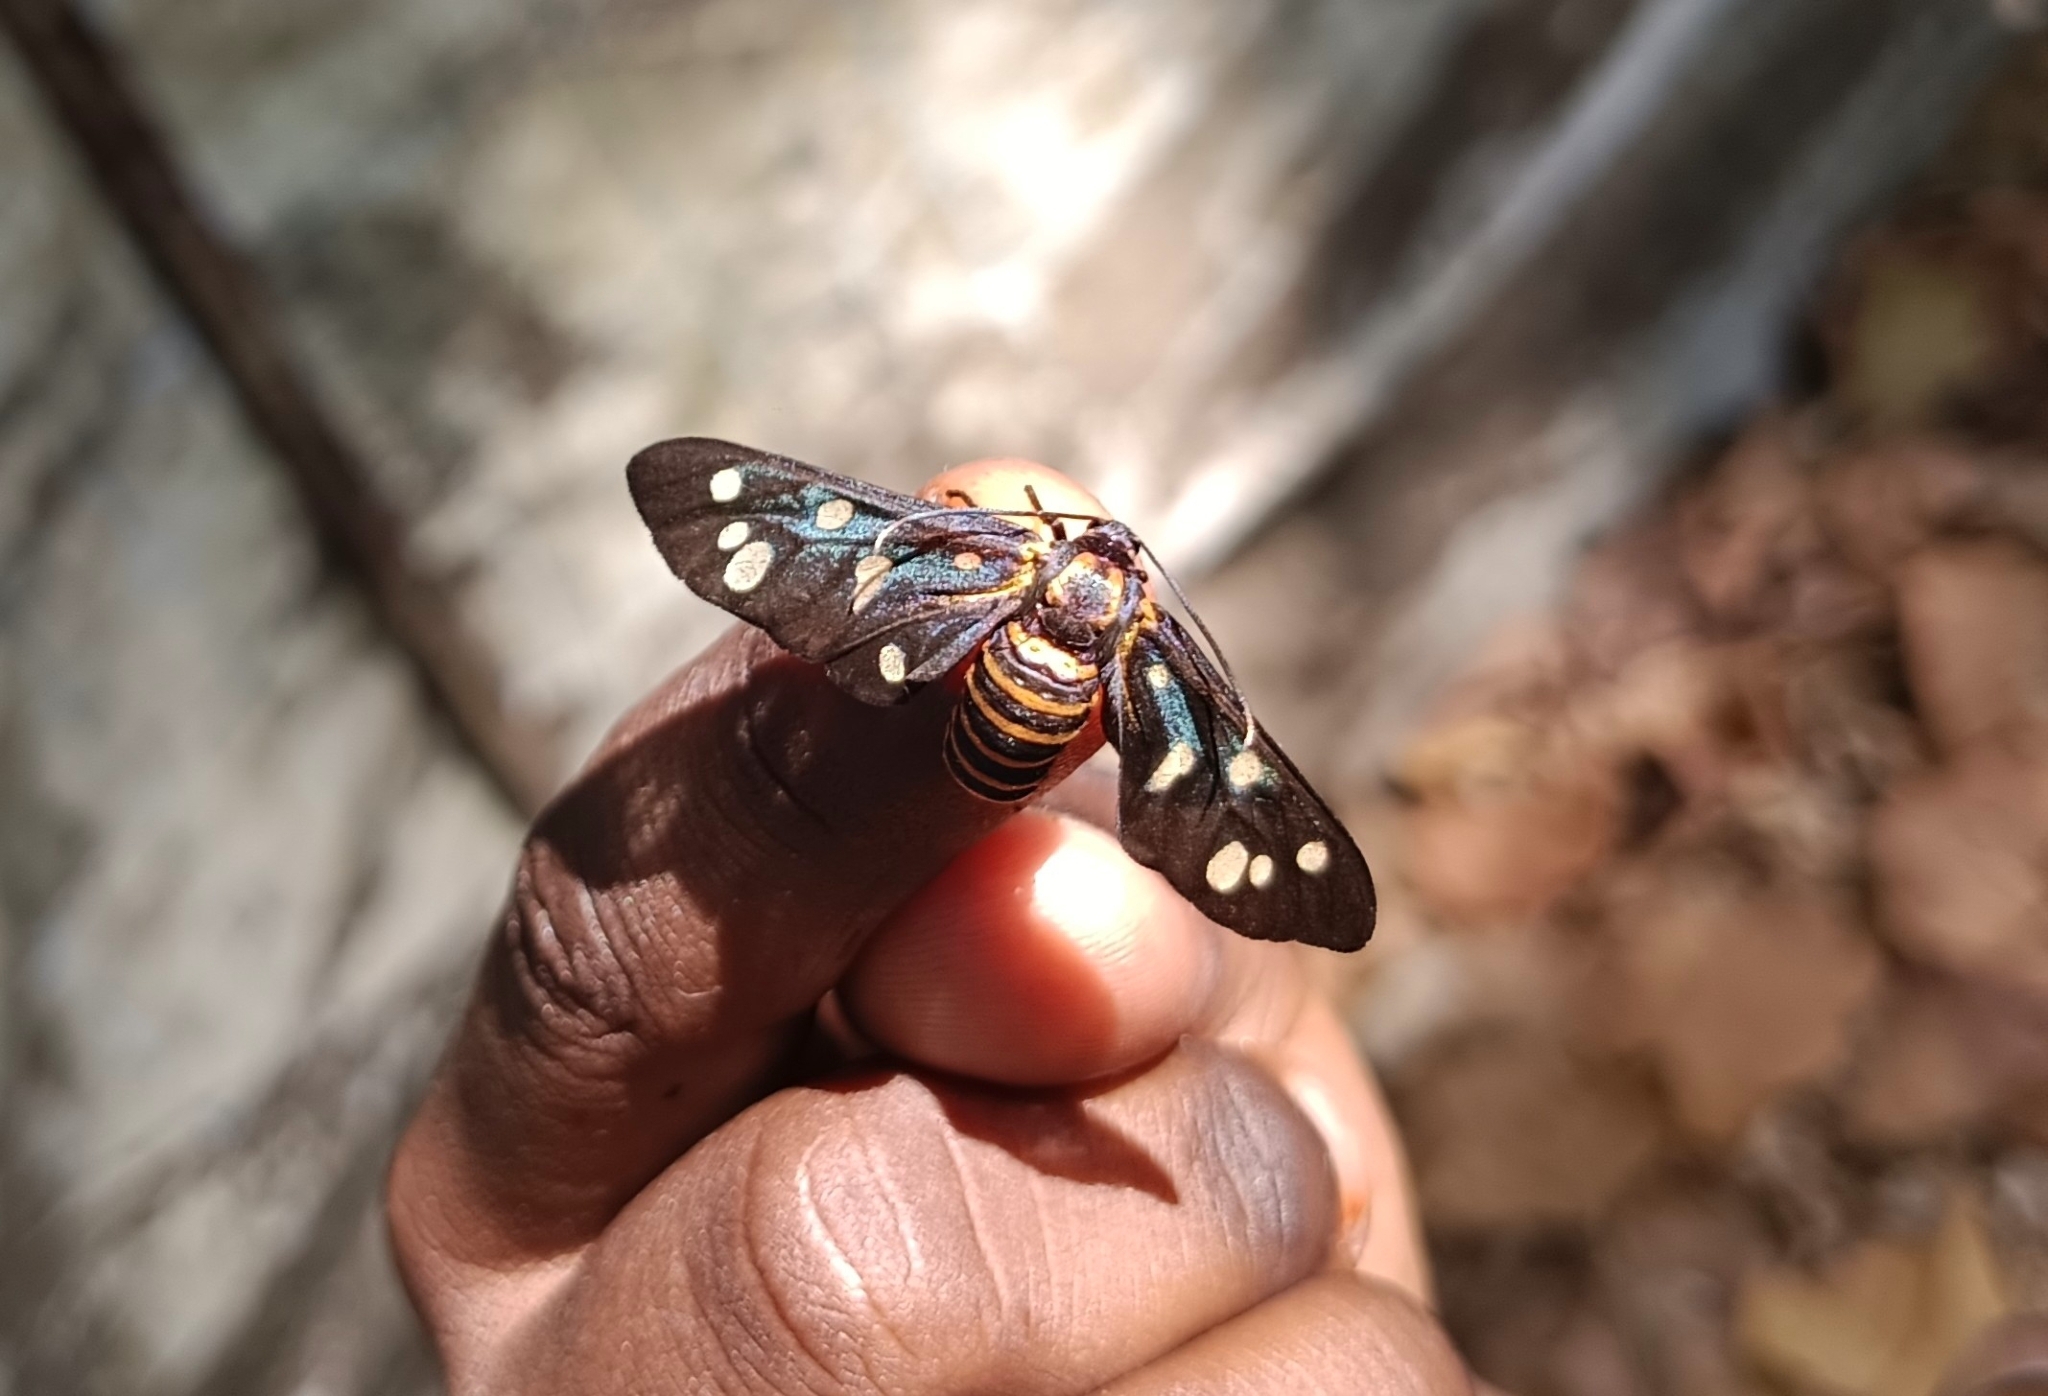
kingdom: Animalia
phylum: Arthropoda
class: Insecta
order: Lepidoptera
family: Erebidae
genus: Amata
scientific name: Amata passalis
